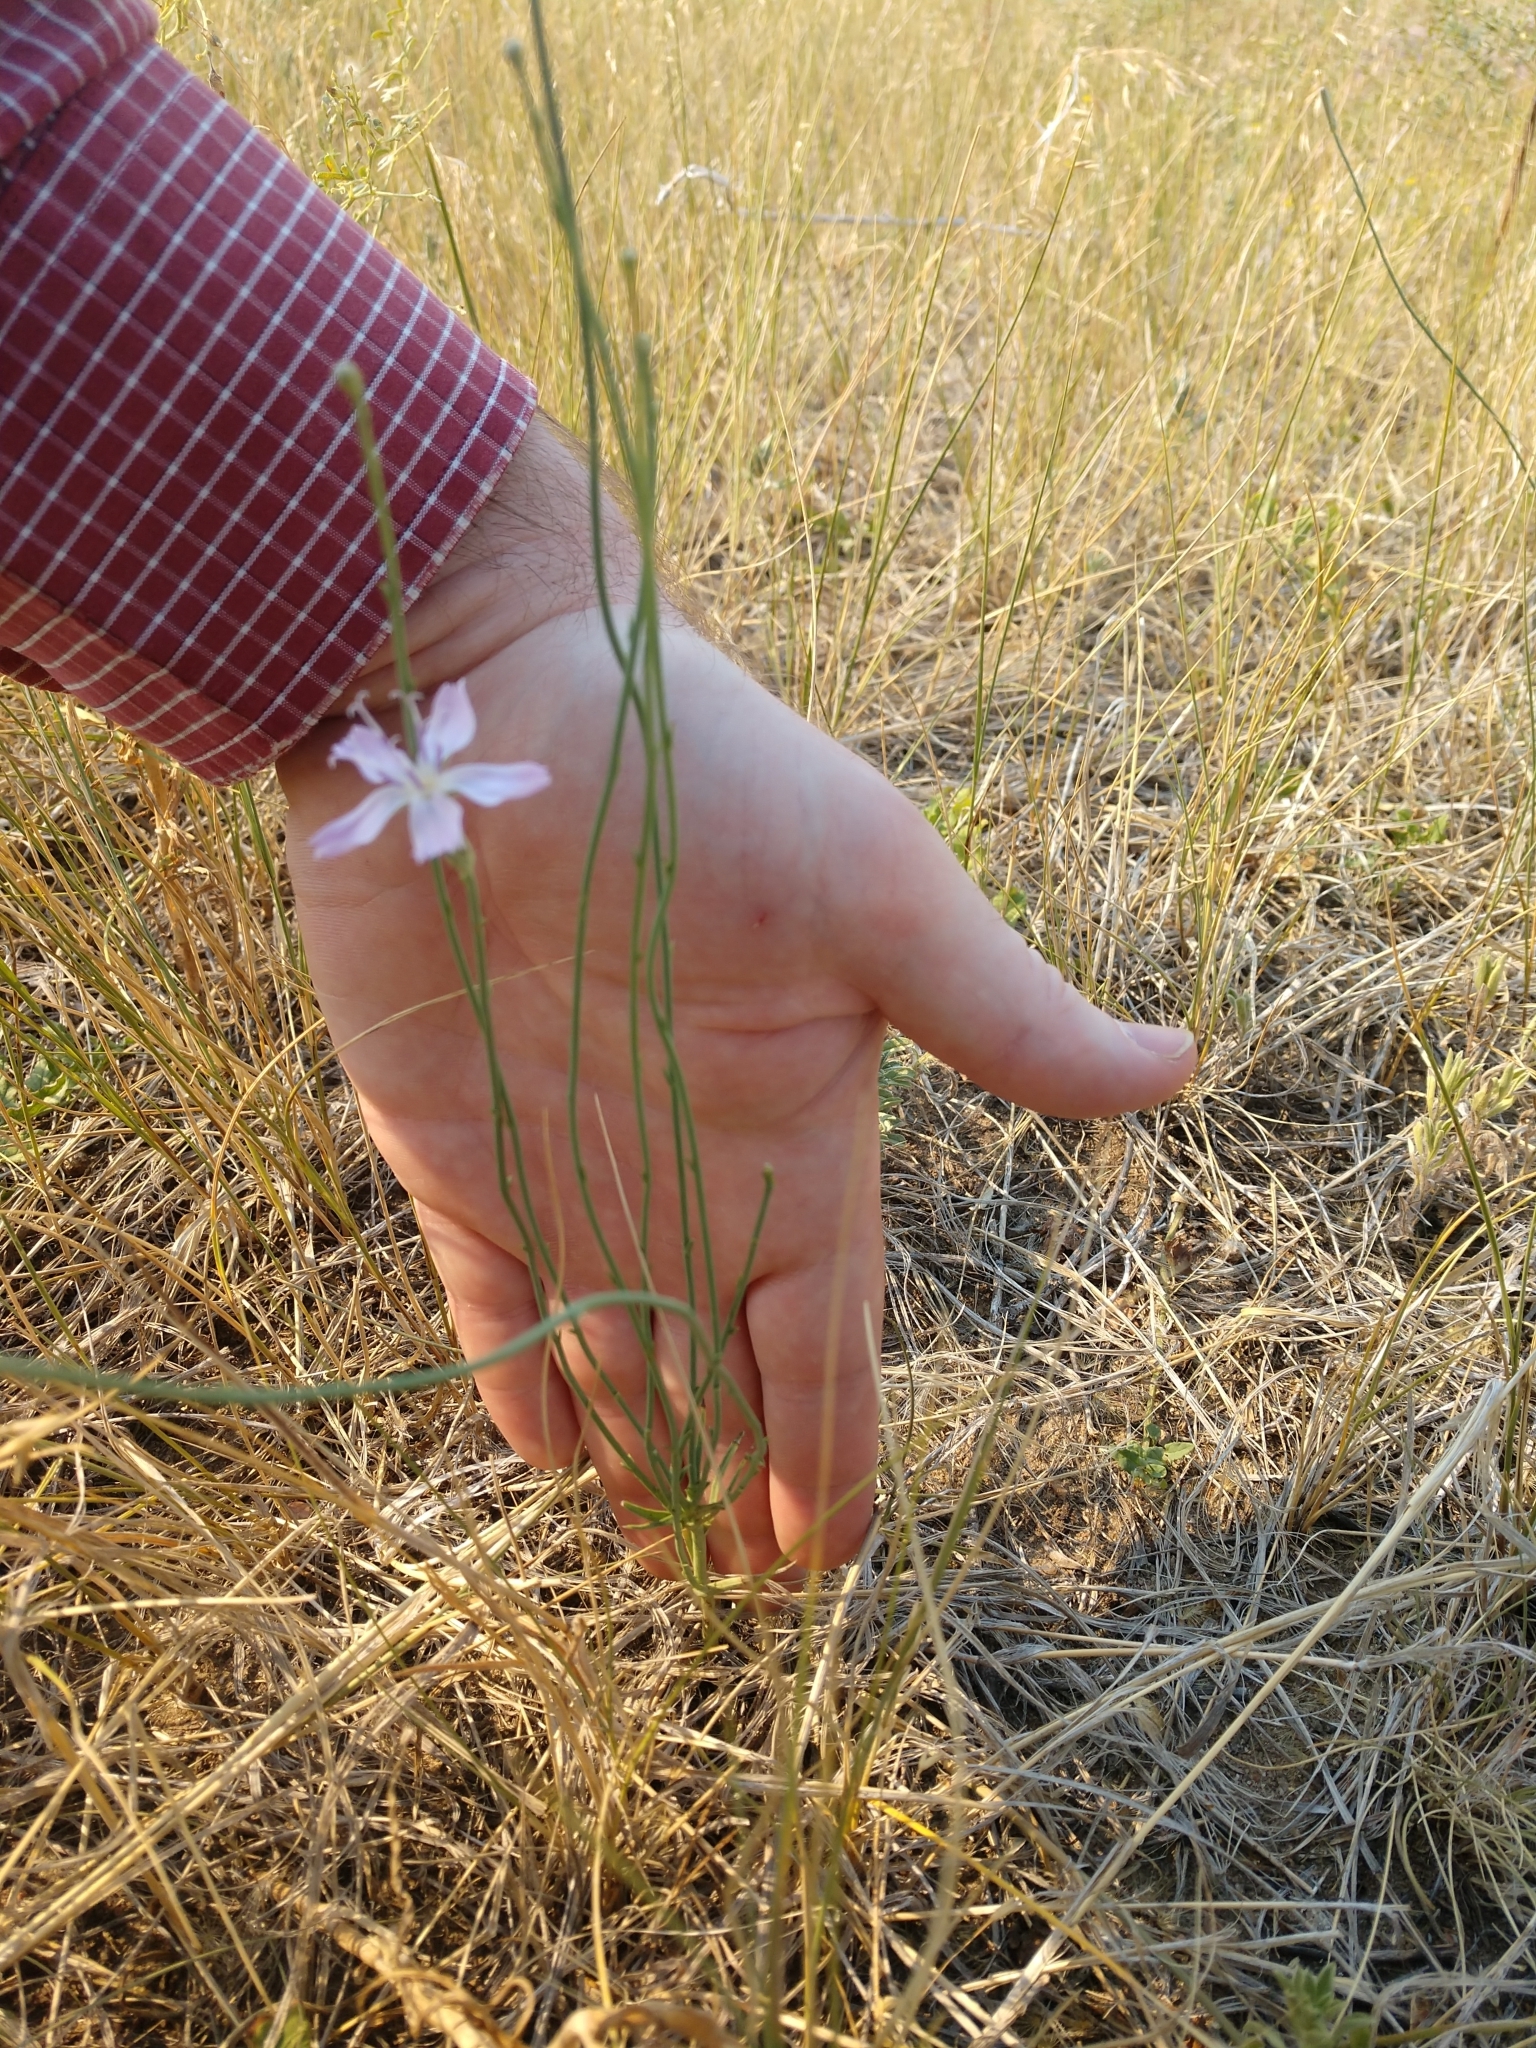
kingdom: Plantae
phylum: Tracheophyta
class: Magnoliopsida
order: Asterales
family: Asteraceae
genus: Lygodesmia
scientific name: Lygodesmia juncea
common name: Common skeletonweed
